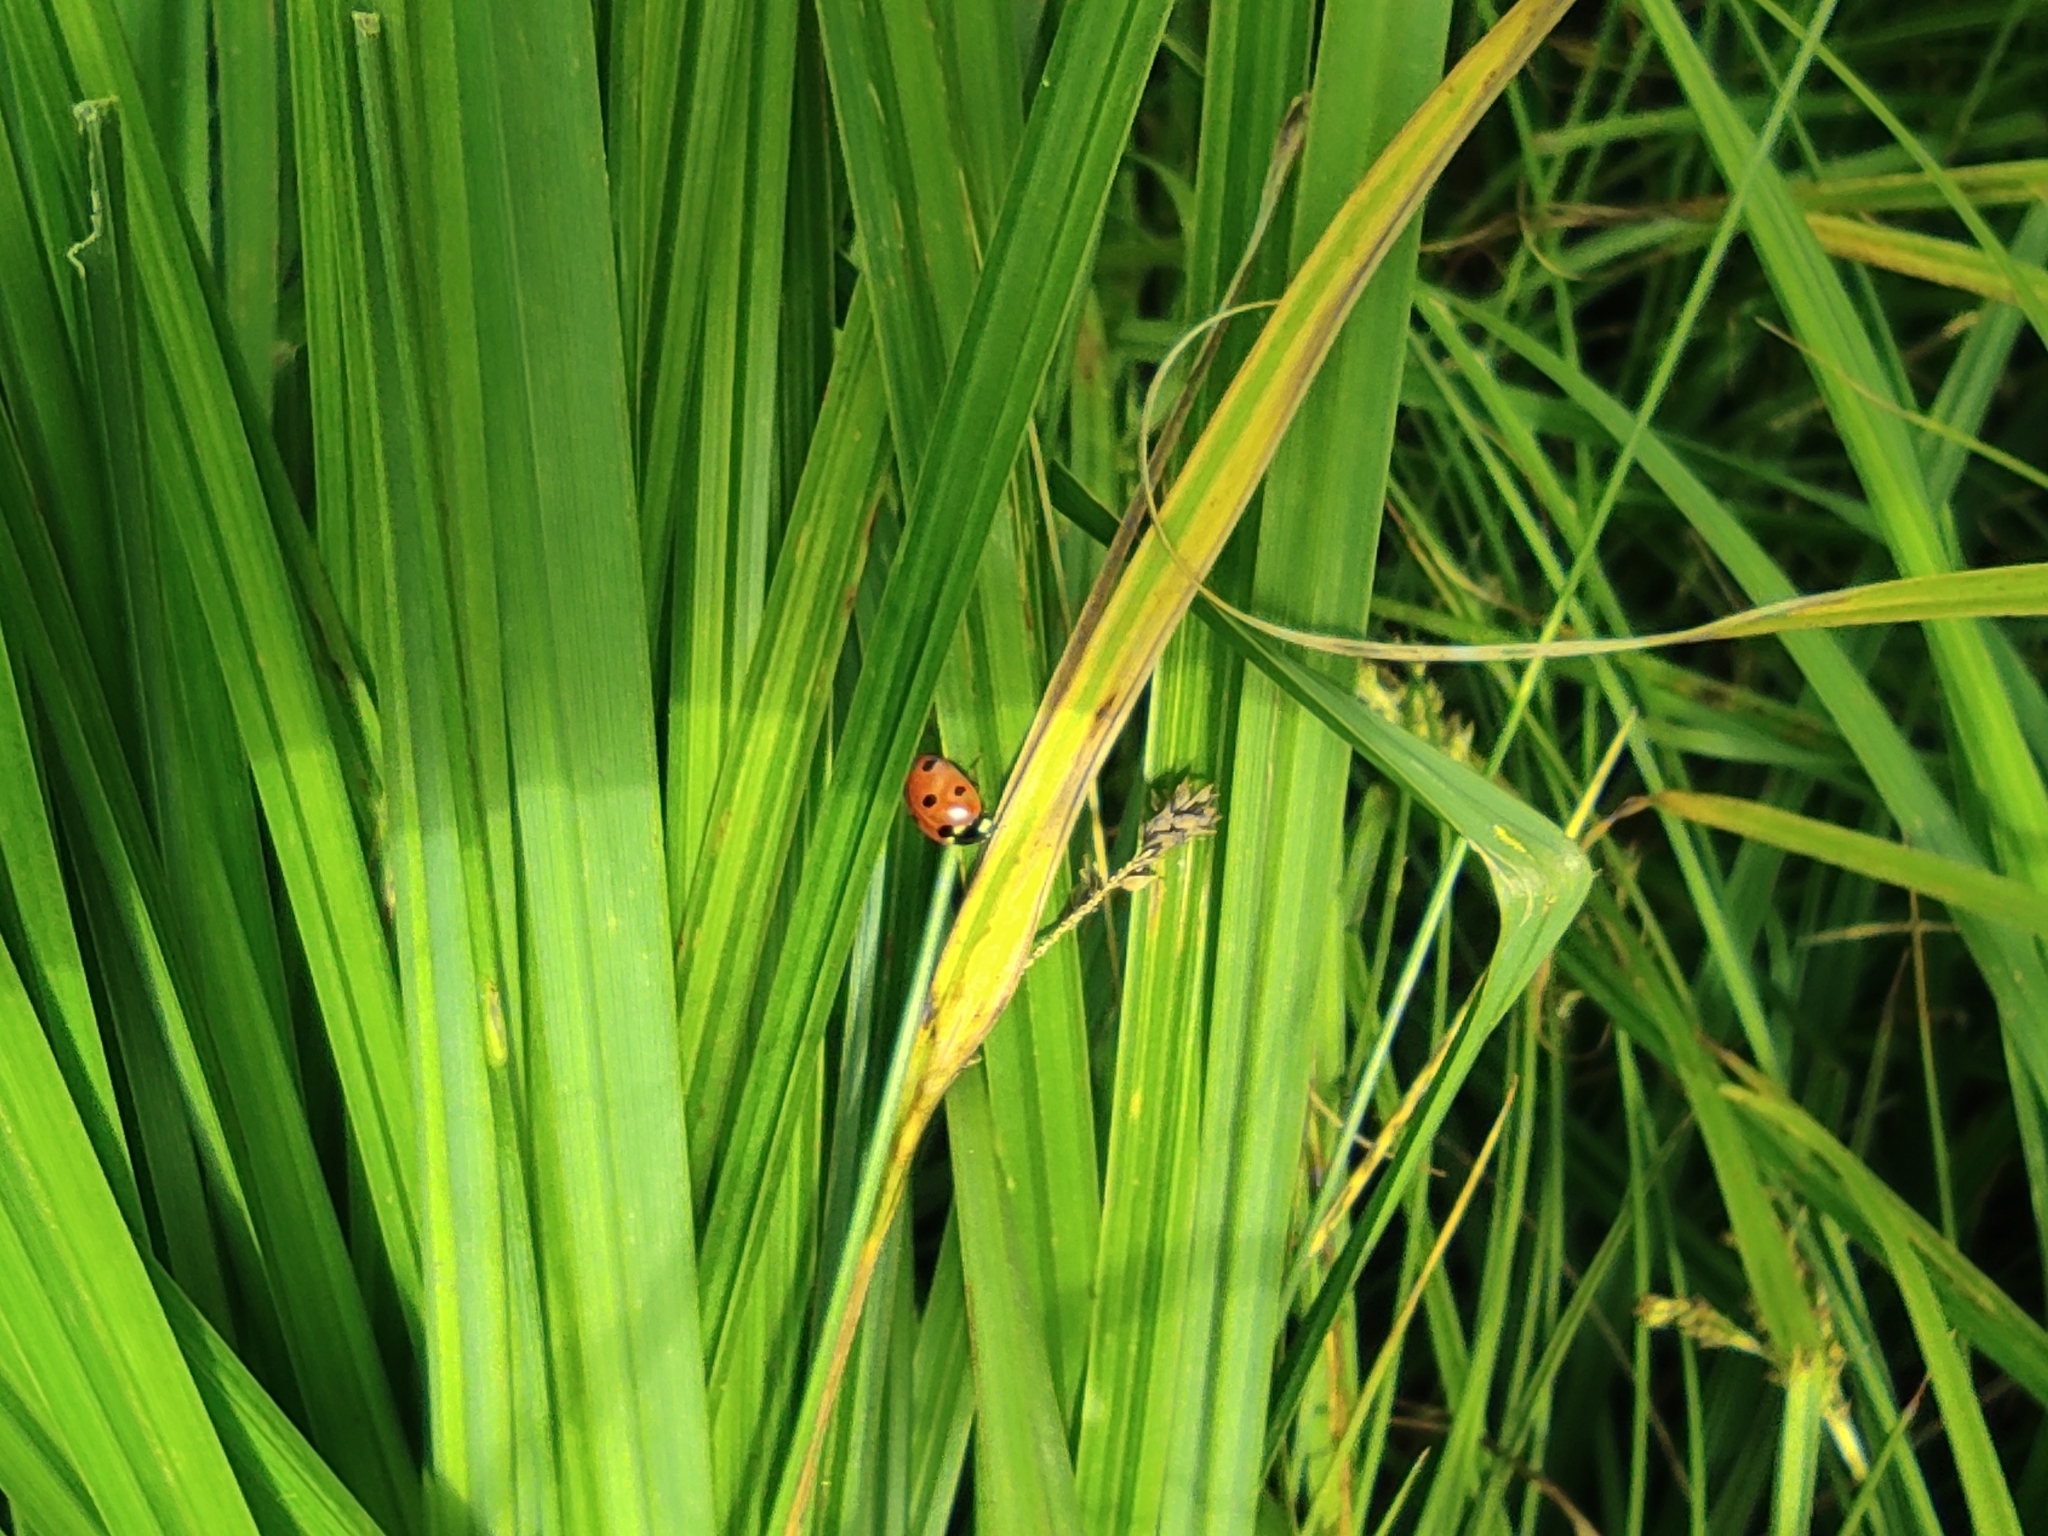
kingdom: Animalia
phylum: Arthropoda
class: Insecta
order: Coleoptera
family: Coccinellidae
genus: Coccinella
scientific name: Coccinella septempunctata
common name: Sevenspotted lady beetle
